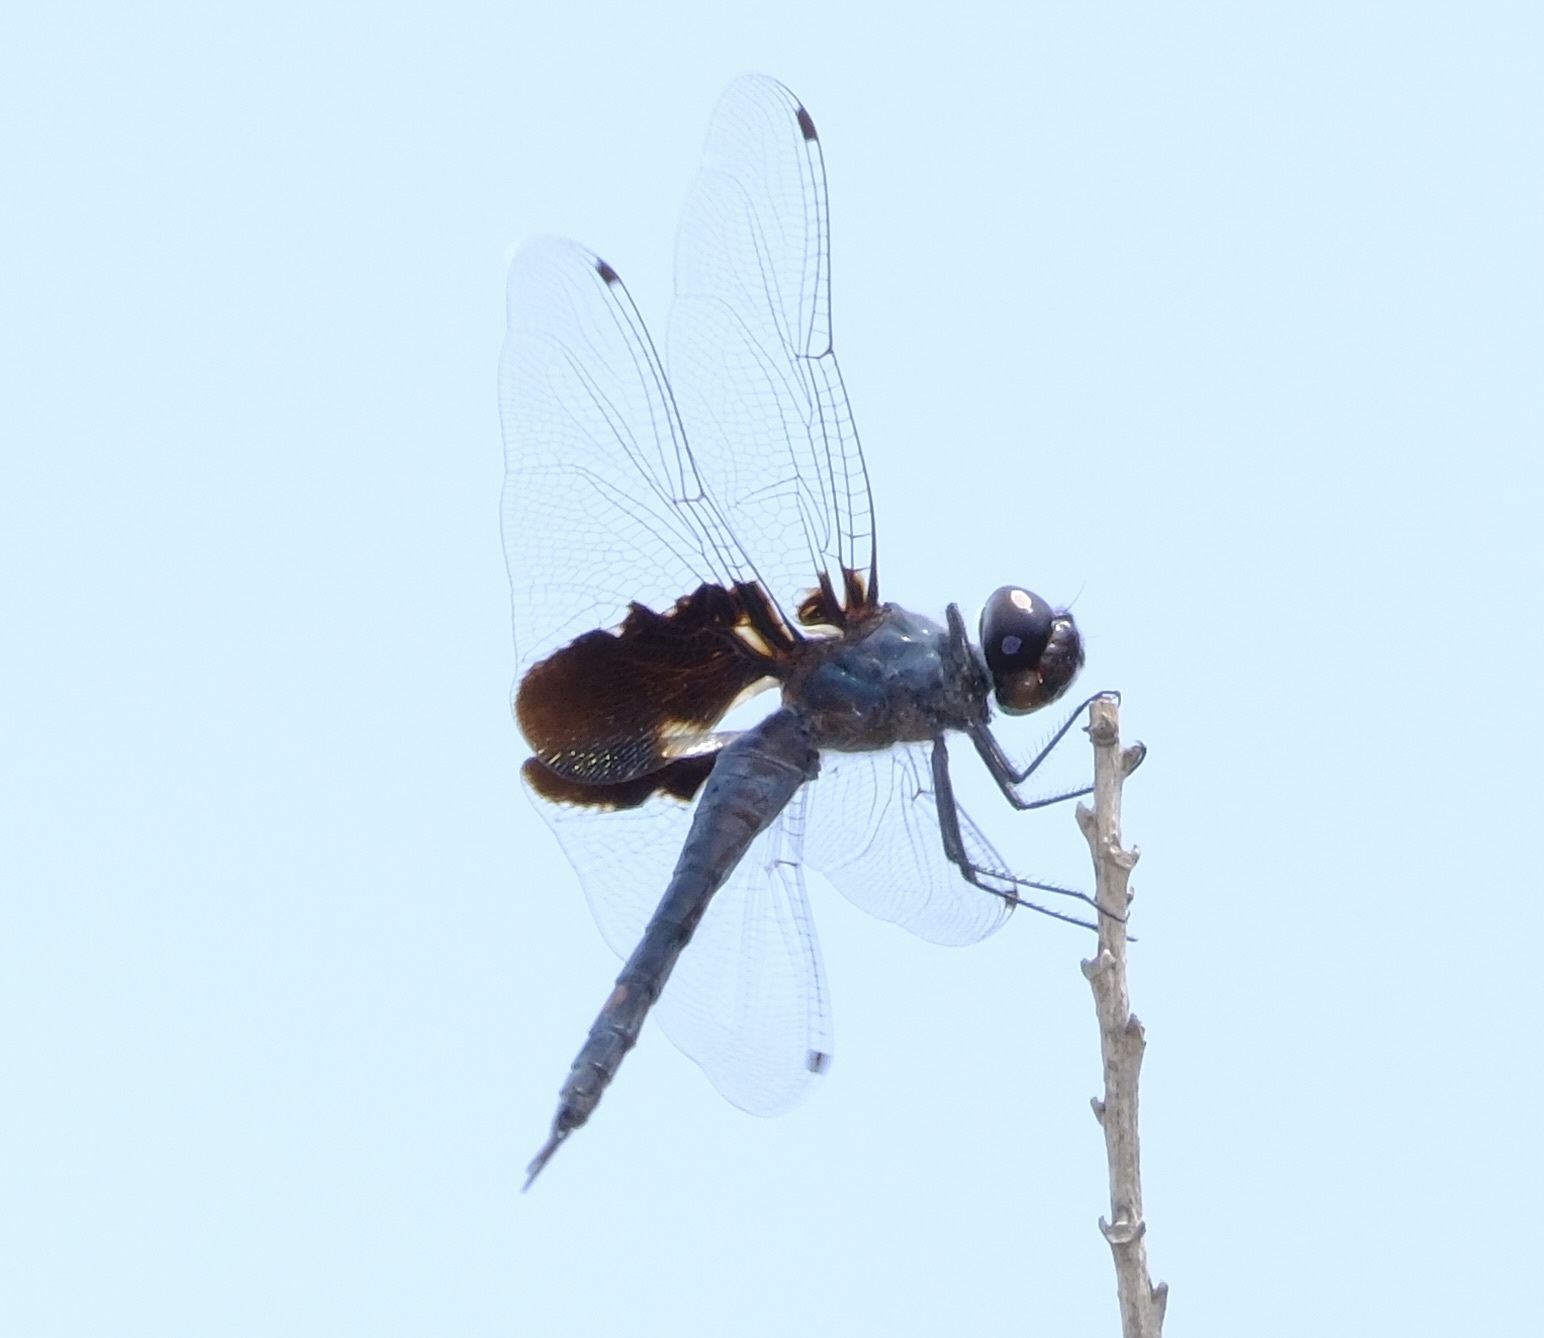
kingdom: Animalia
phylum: Arthropoda
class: Insecta
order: Odonata
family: Libellulidae
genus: Tramea
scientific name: Tramea lacerata
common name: Black saddlebags
